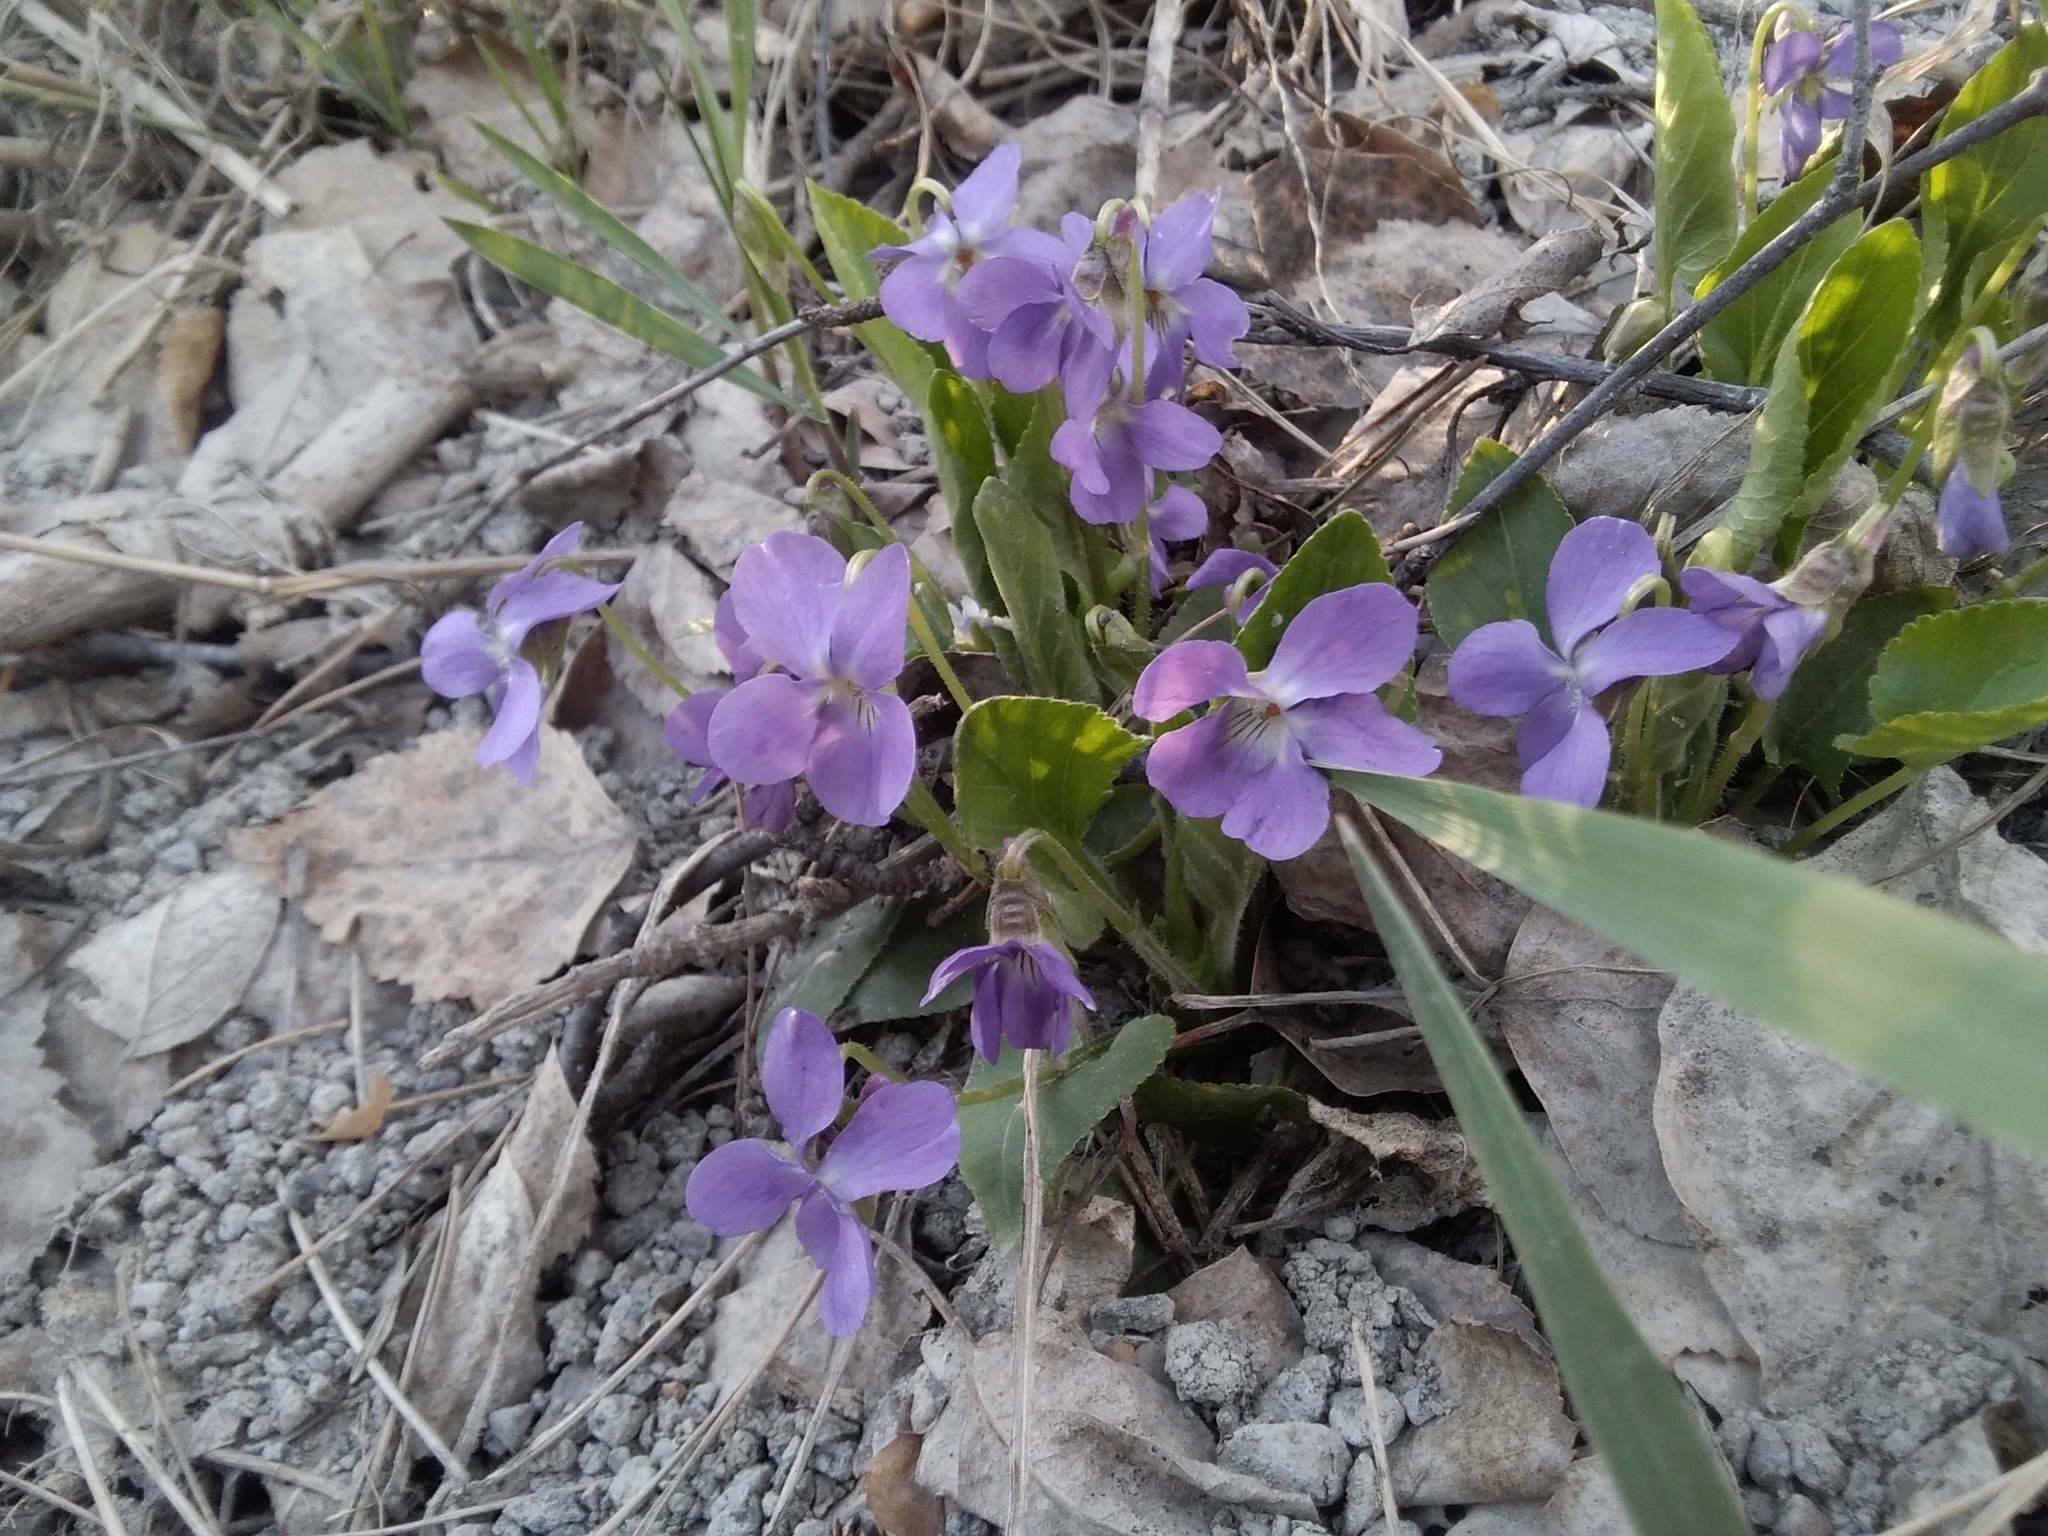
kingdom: Plantae
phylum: Tracheophyta
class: Magnoliopsida
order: Malpighiales
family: Violaceae
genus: Viola
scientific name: Viola hirta
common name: Hairy violet
